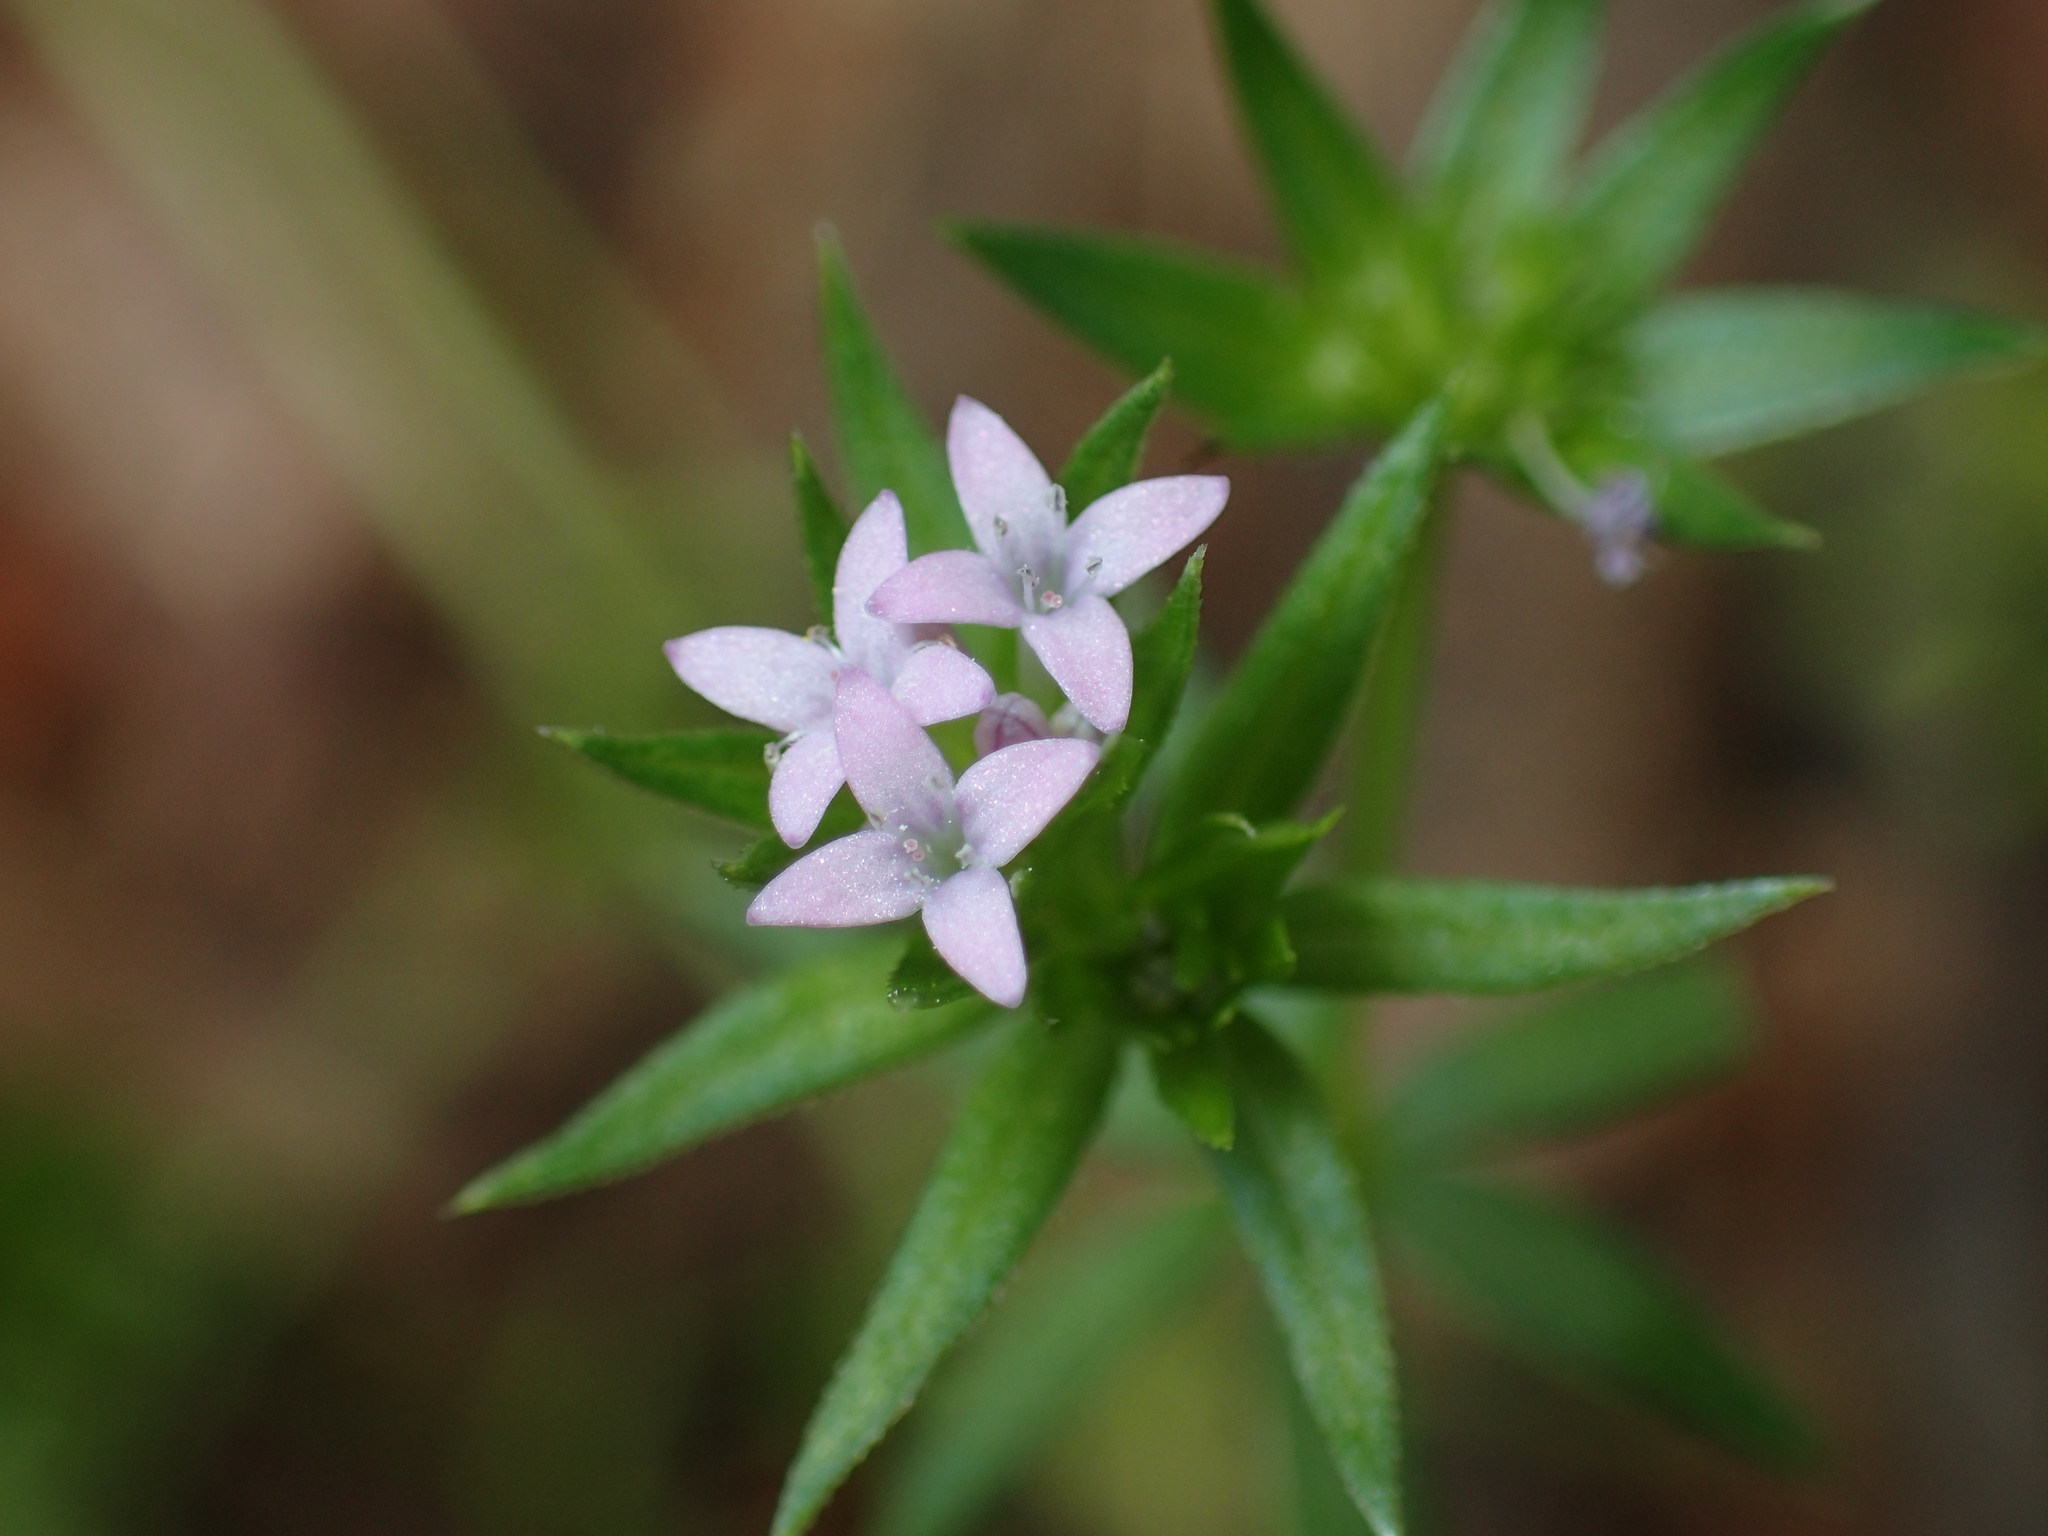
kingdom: Plantae
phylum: Tracheophyta
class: Magnoliopsida
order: Gentianales
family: Rubiaceae
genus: Sherardia
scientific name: Sherardia arvensis
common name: Field madder
